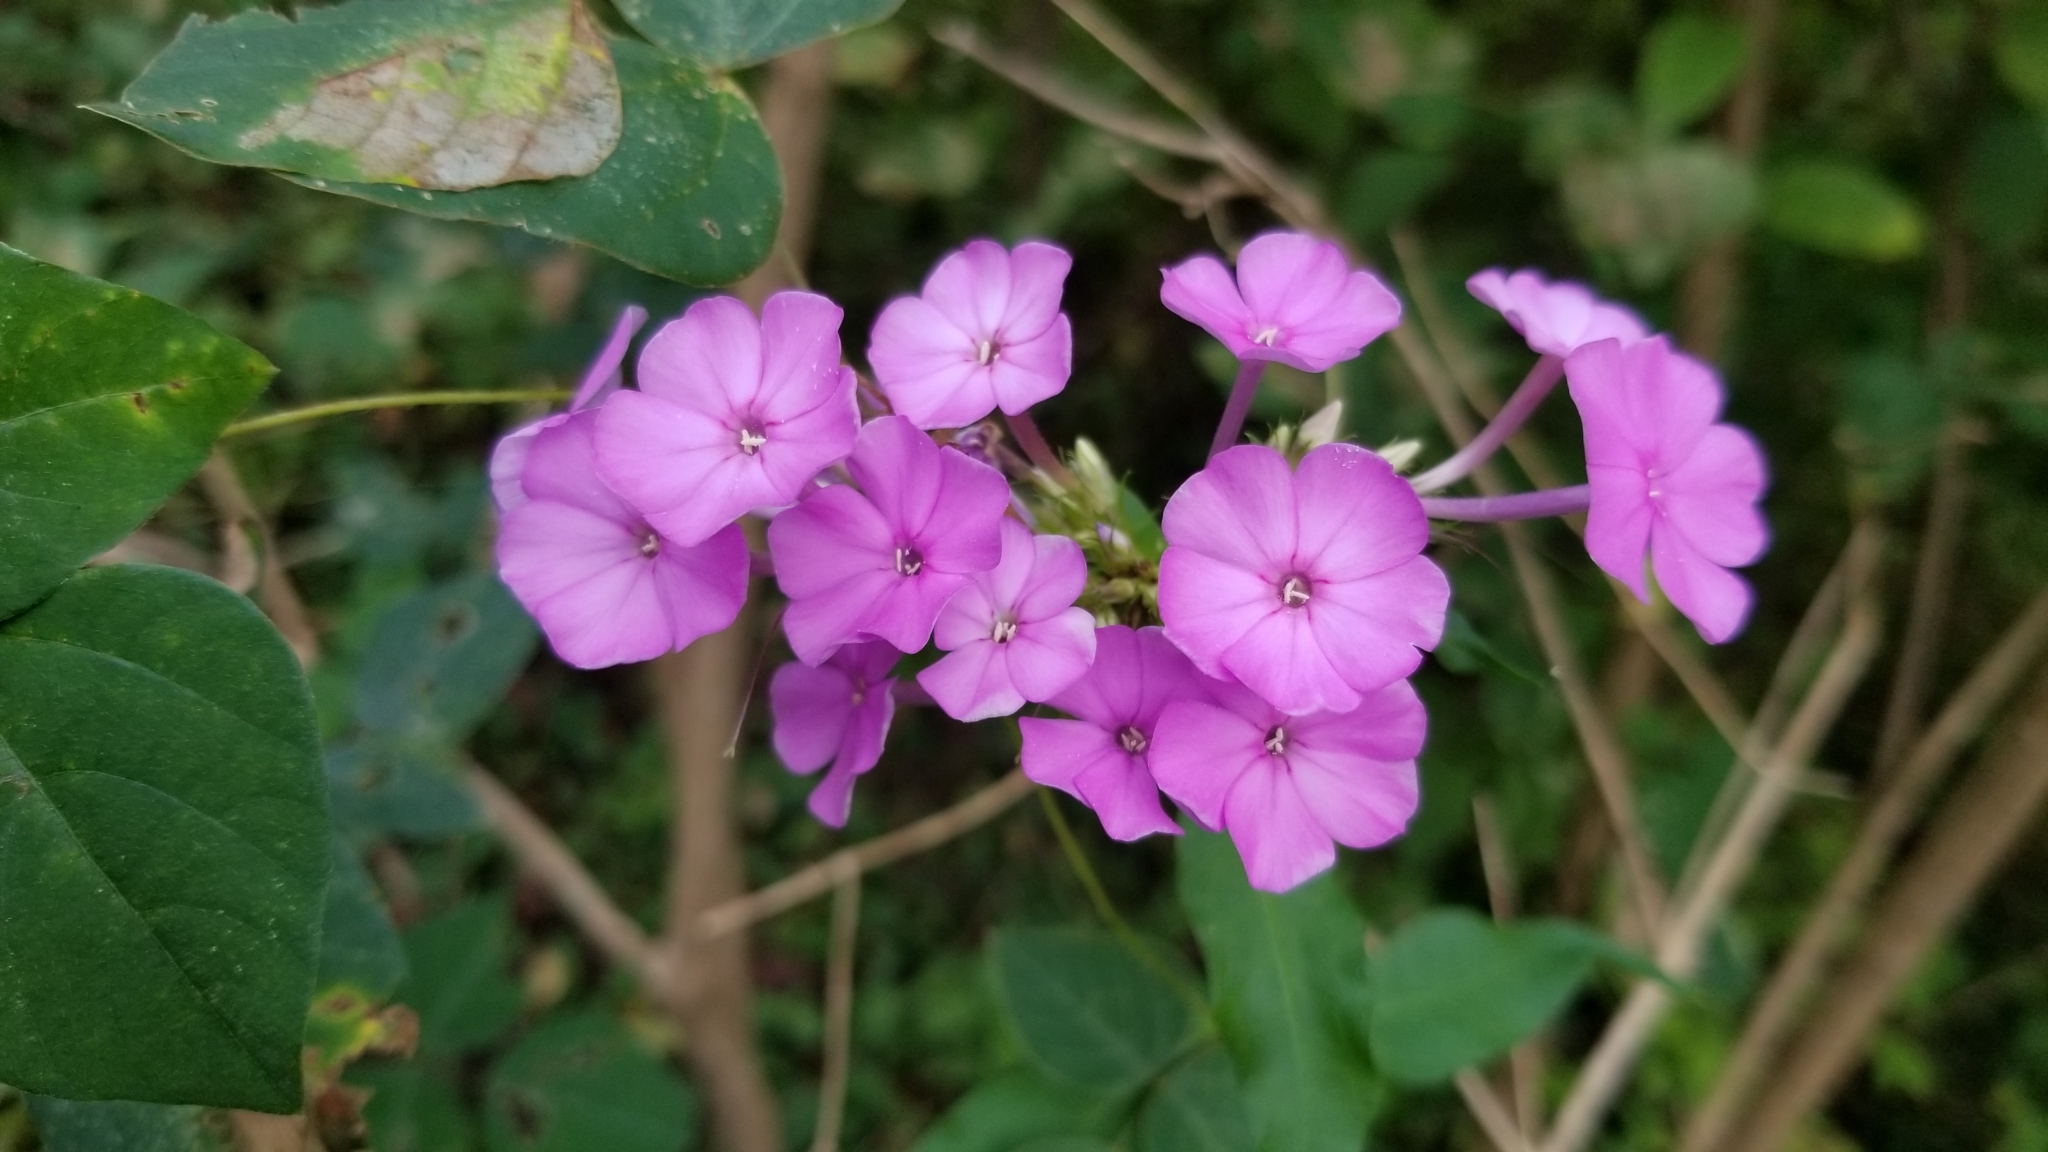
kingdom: Plantae
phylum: Tracheophyta
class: Magnoliopsida
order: Ericales
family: Polemoniaceae
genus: Phlox
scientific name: Phlox paniculata
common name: Fall phlox
